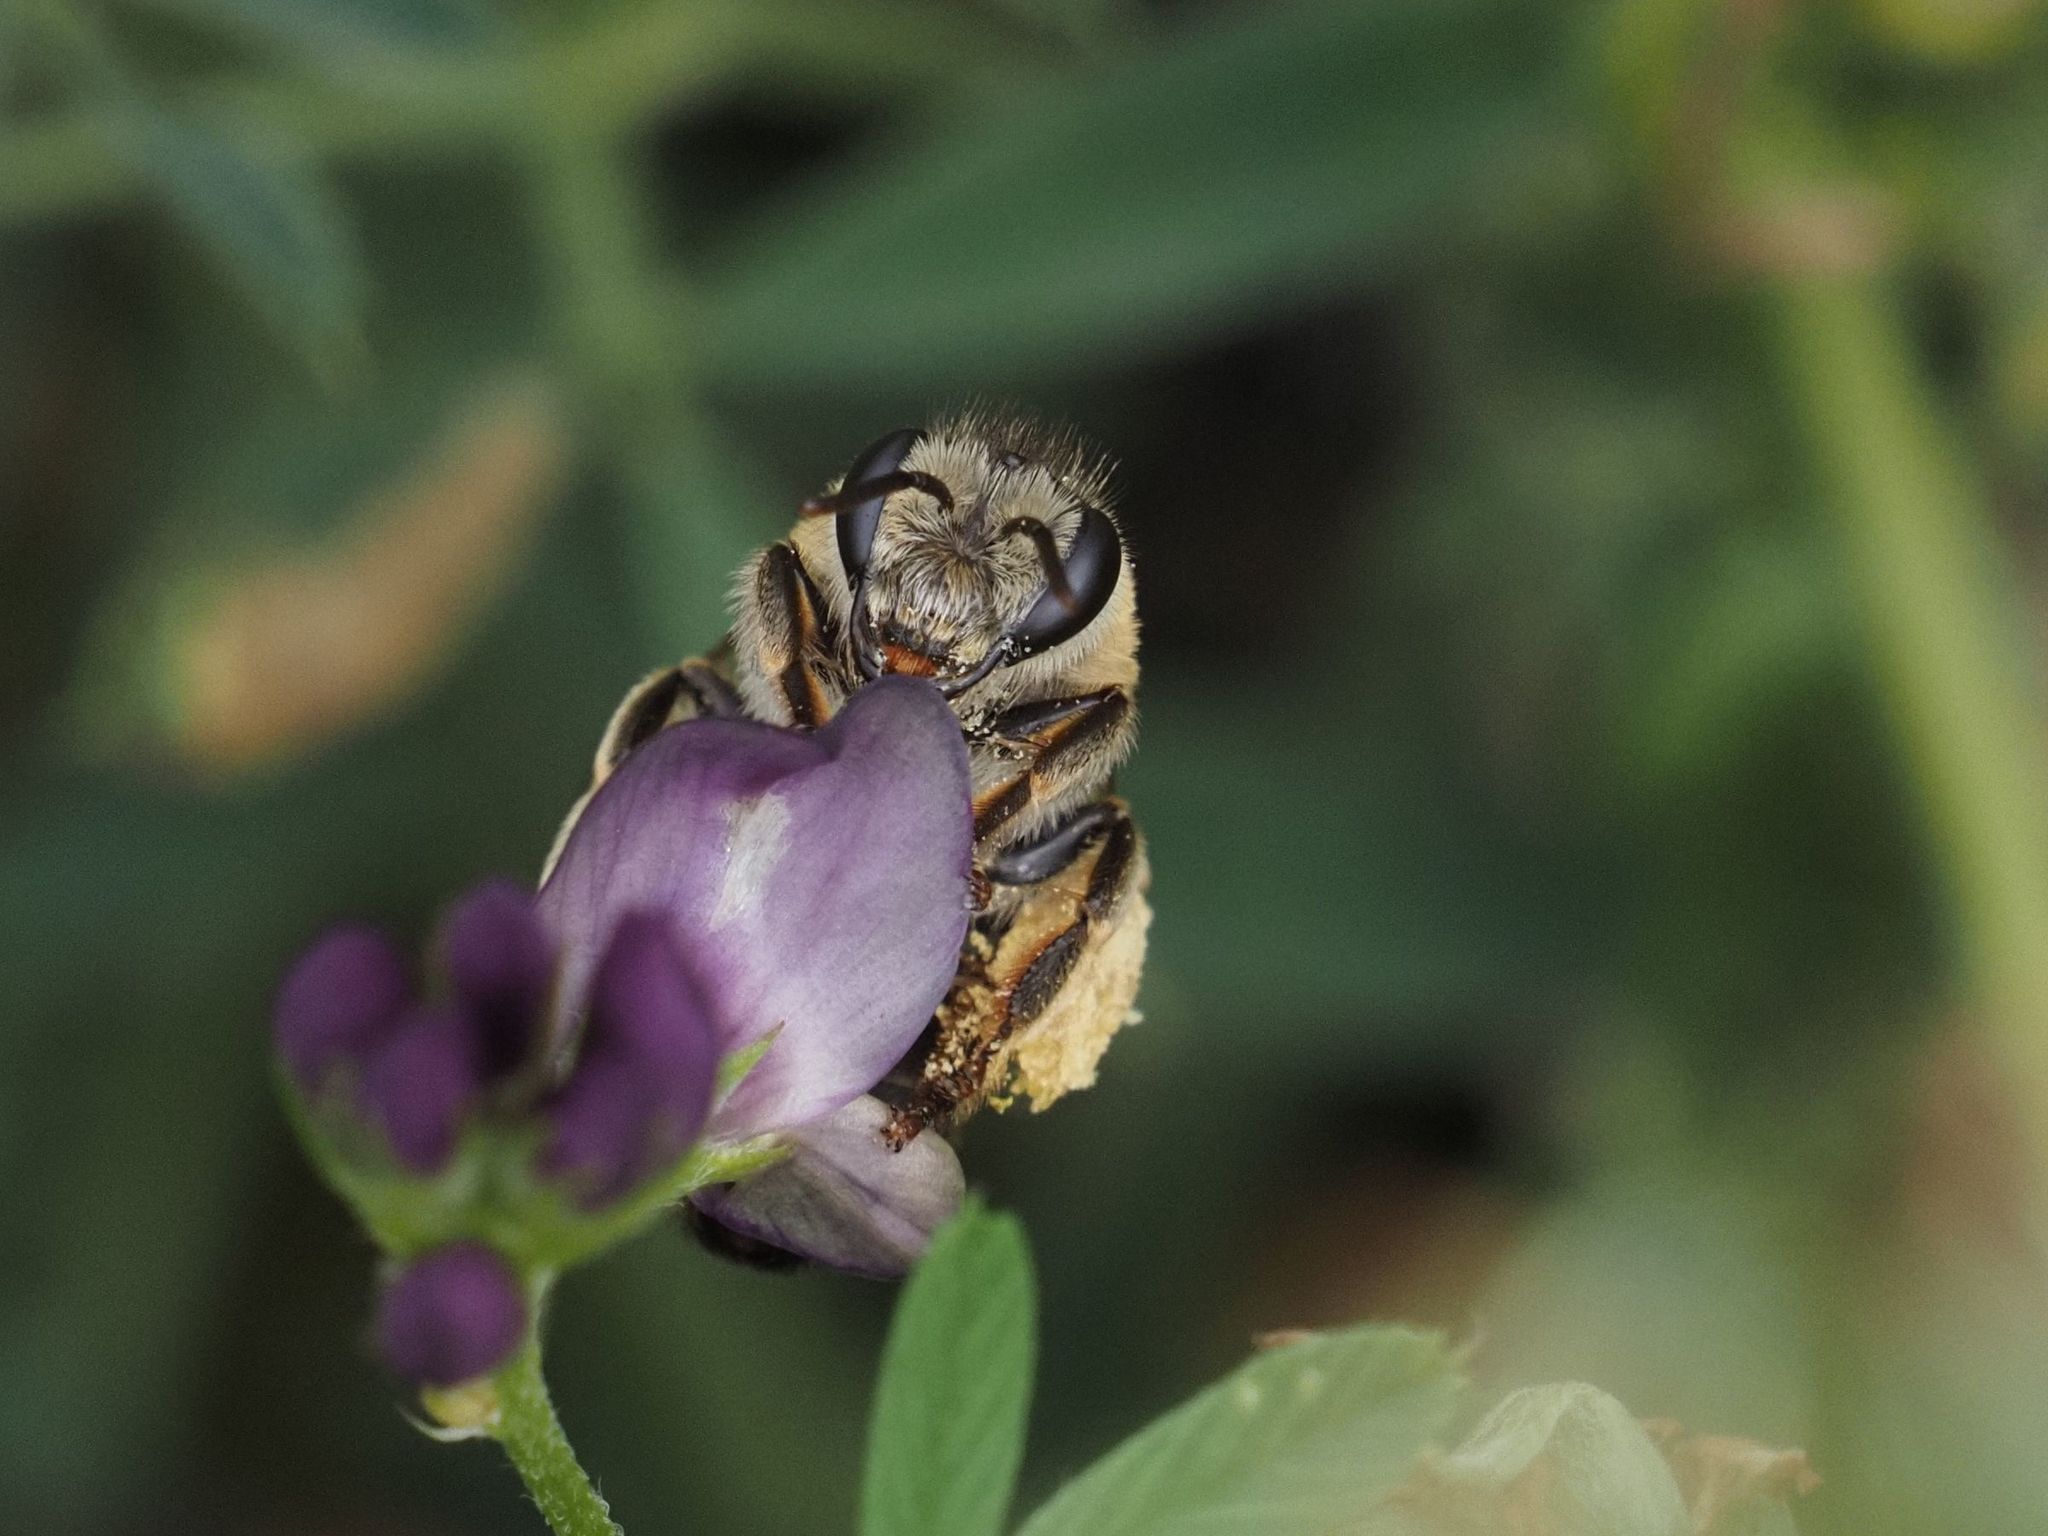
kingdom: Animalia
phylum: Arthropoda
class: Insecta
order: Hymenoptera
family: Melittidae
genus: Melitta
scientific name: Melitta leporina
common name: Clover melitta
